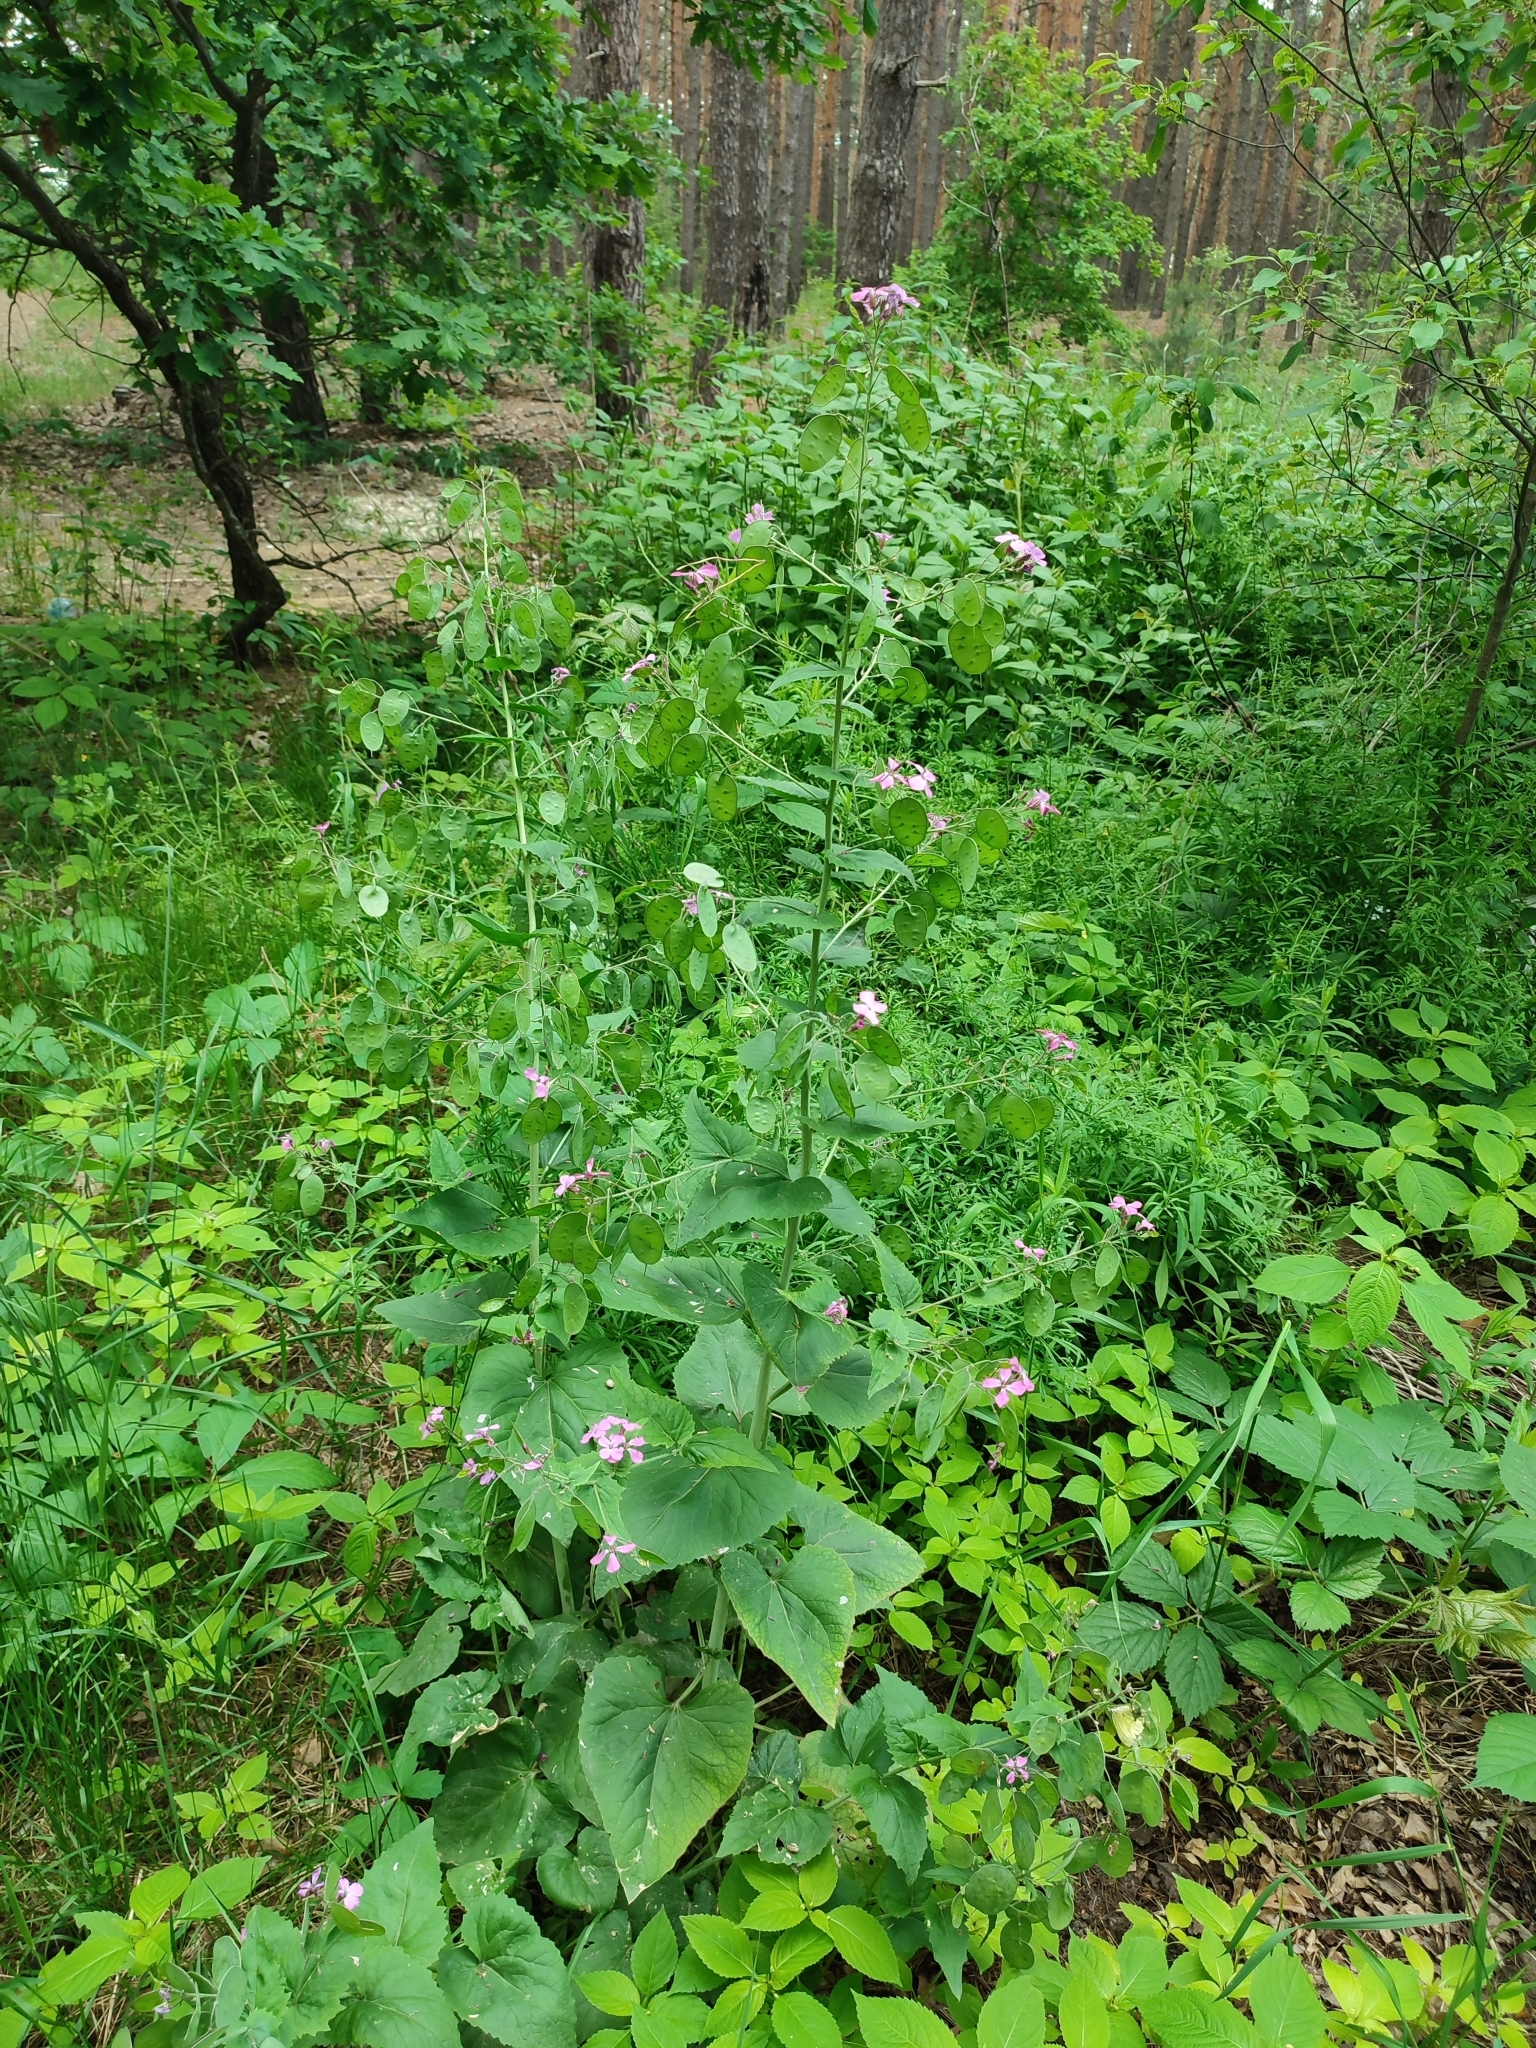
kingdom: Plantae
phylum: Tracheophyta
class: Magnoliopsida
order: Brassicales
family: Brassicaceae
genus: Lunaria
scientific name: Lunaria annua
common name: Honesty
